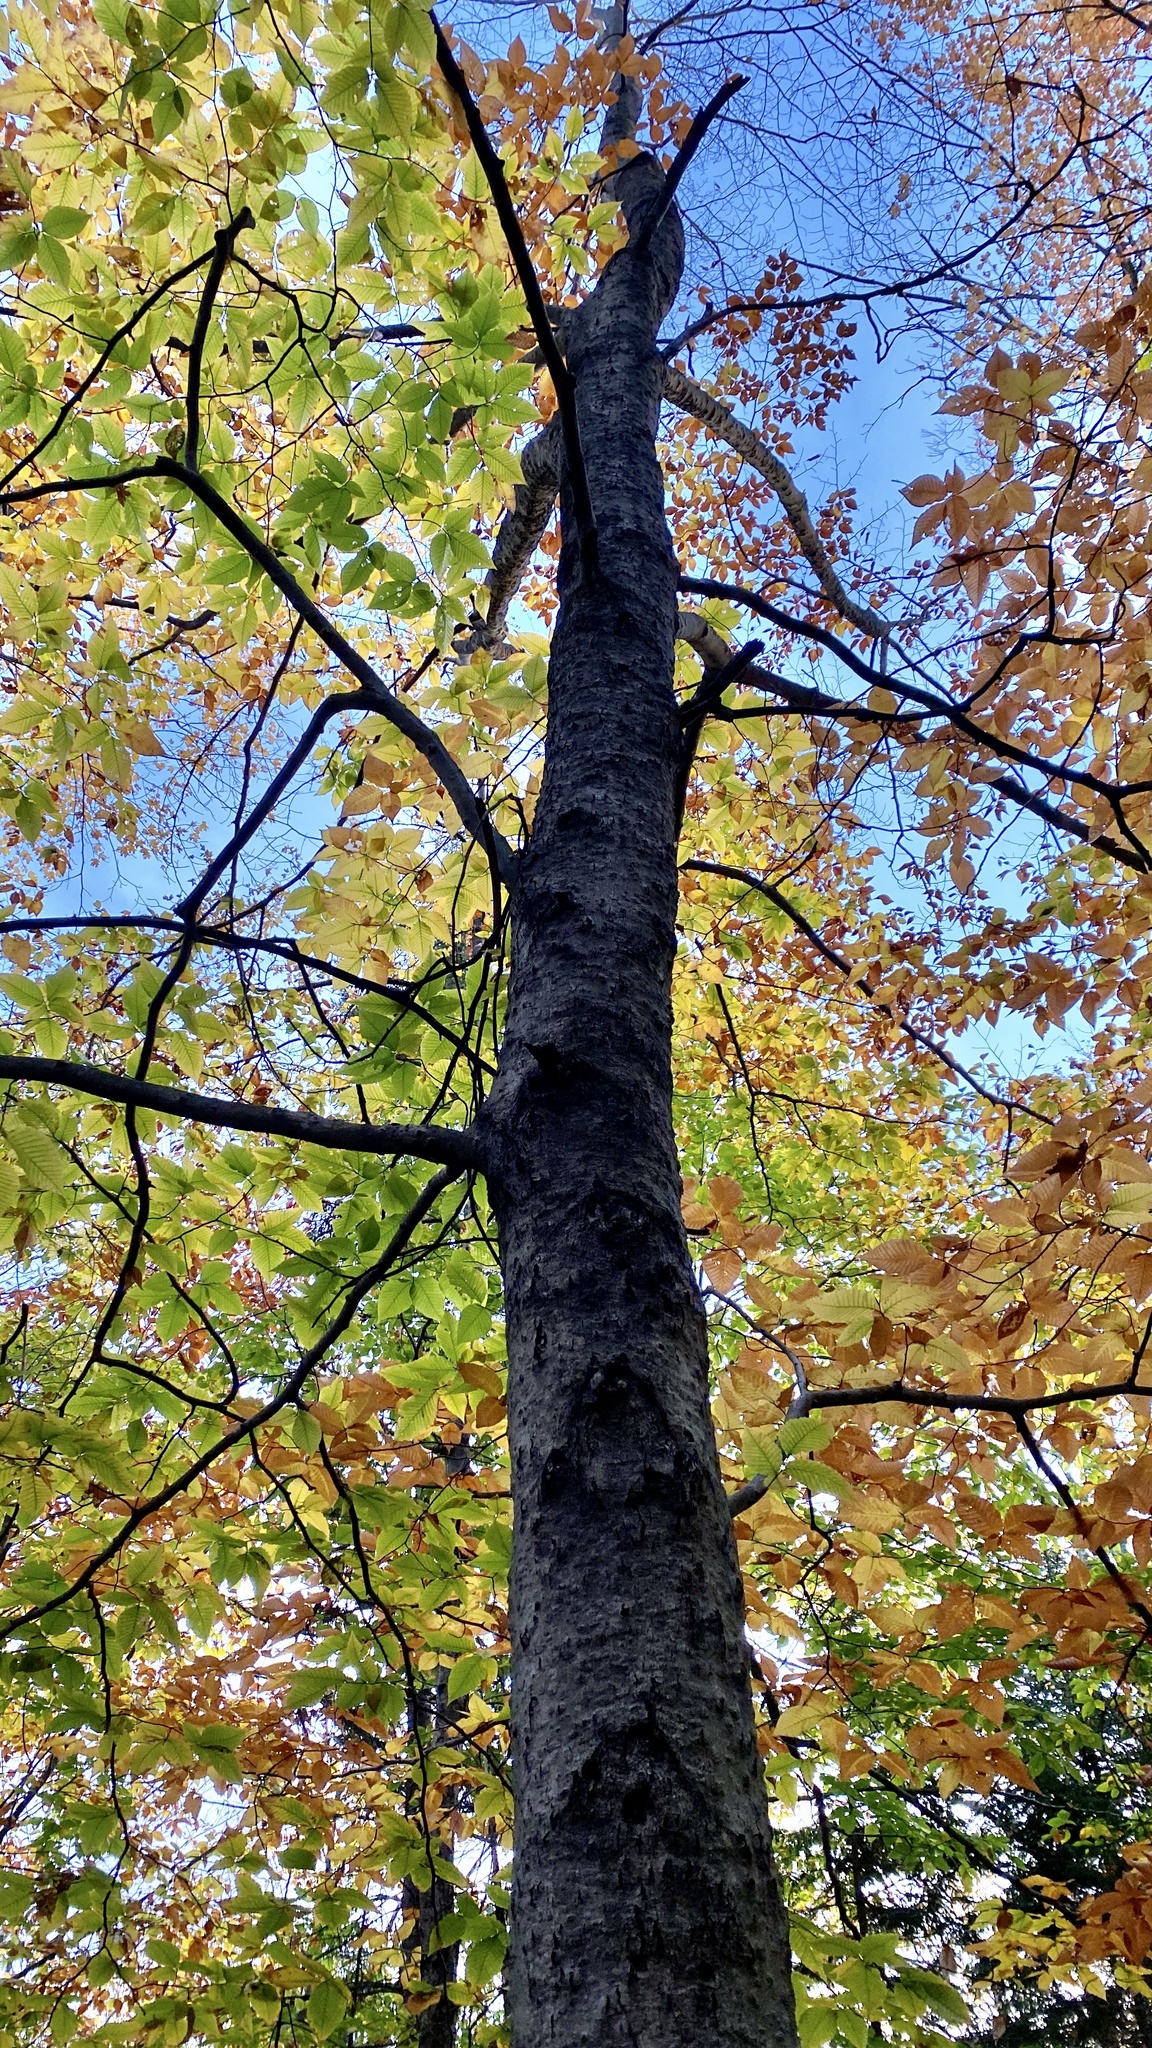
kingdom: Plantae
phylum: Tracheophyta
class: Magnoliopsida
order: Fagales
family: Fagaceae
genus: Fagus
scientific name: Fagus grandifolia
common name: American beech
